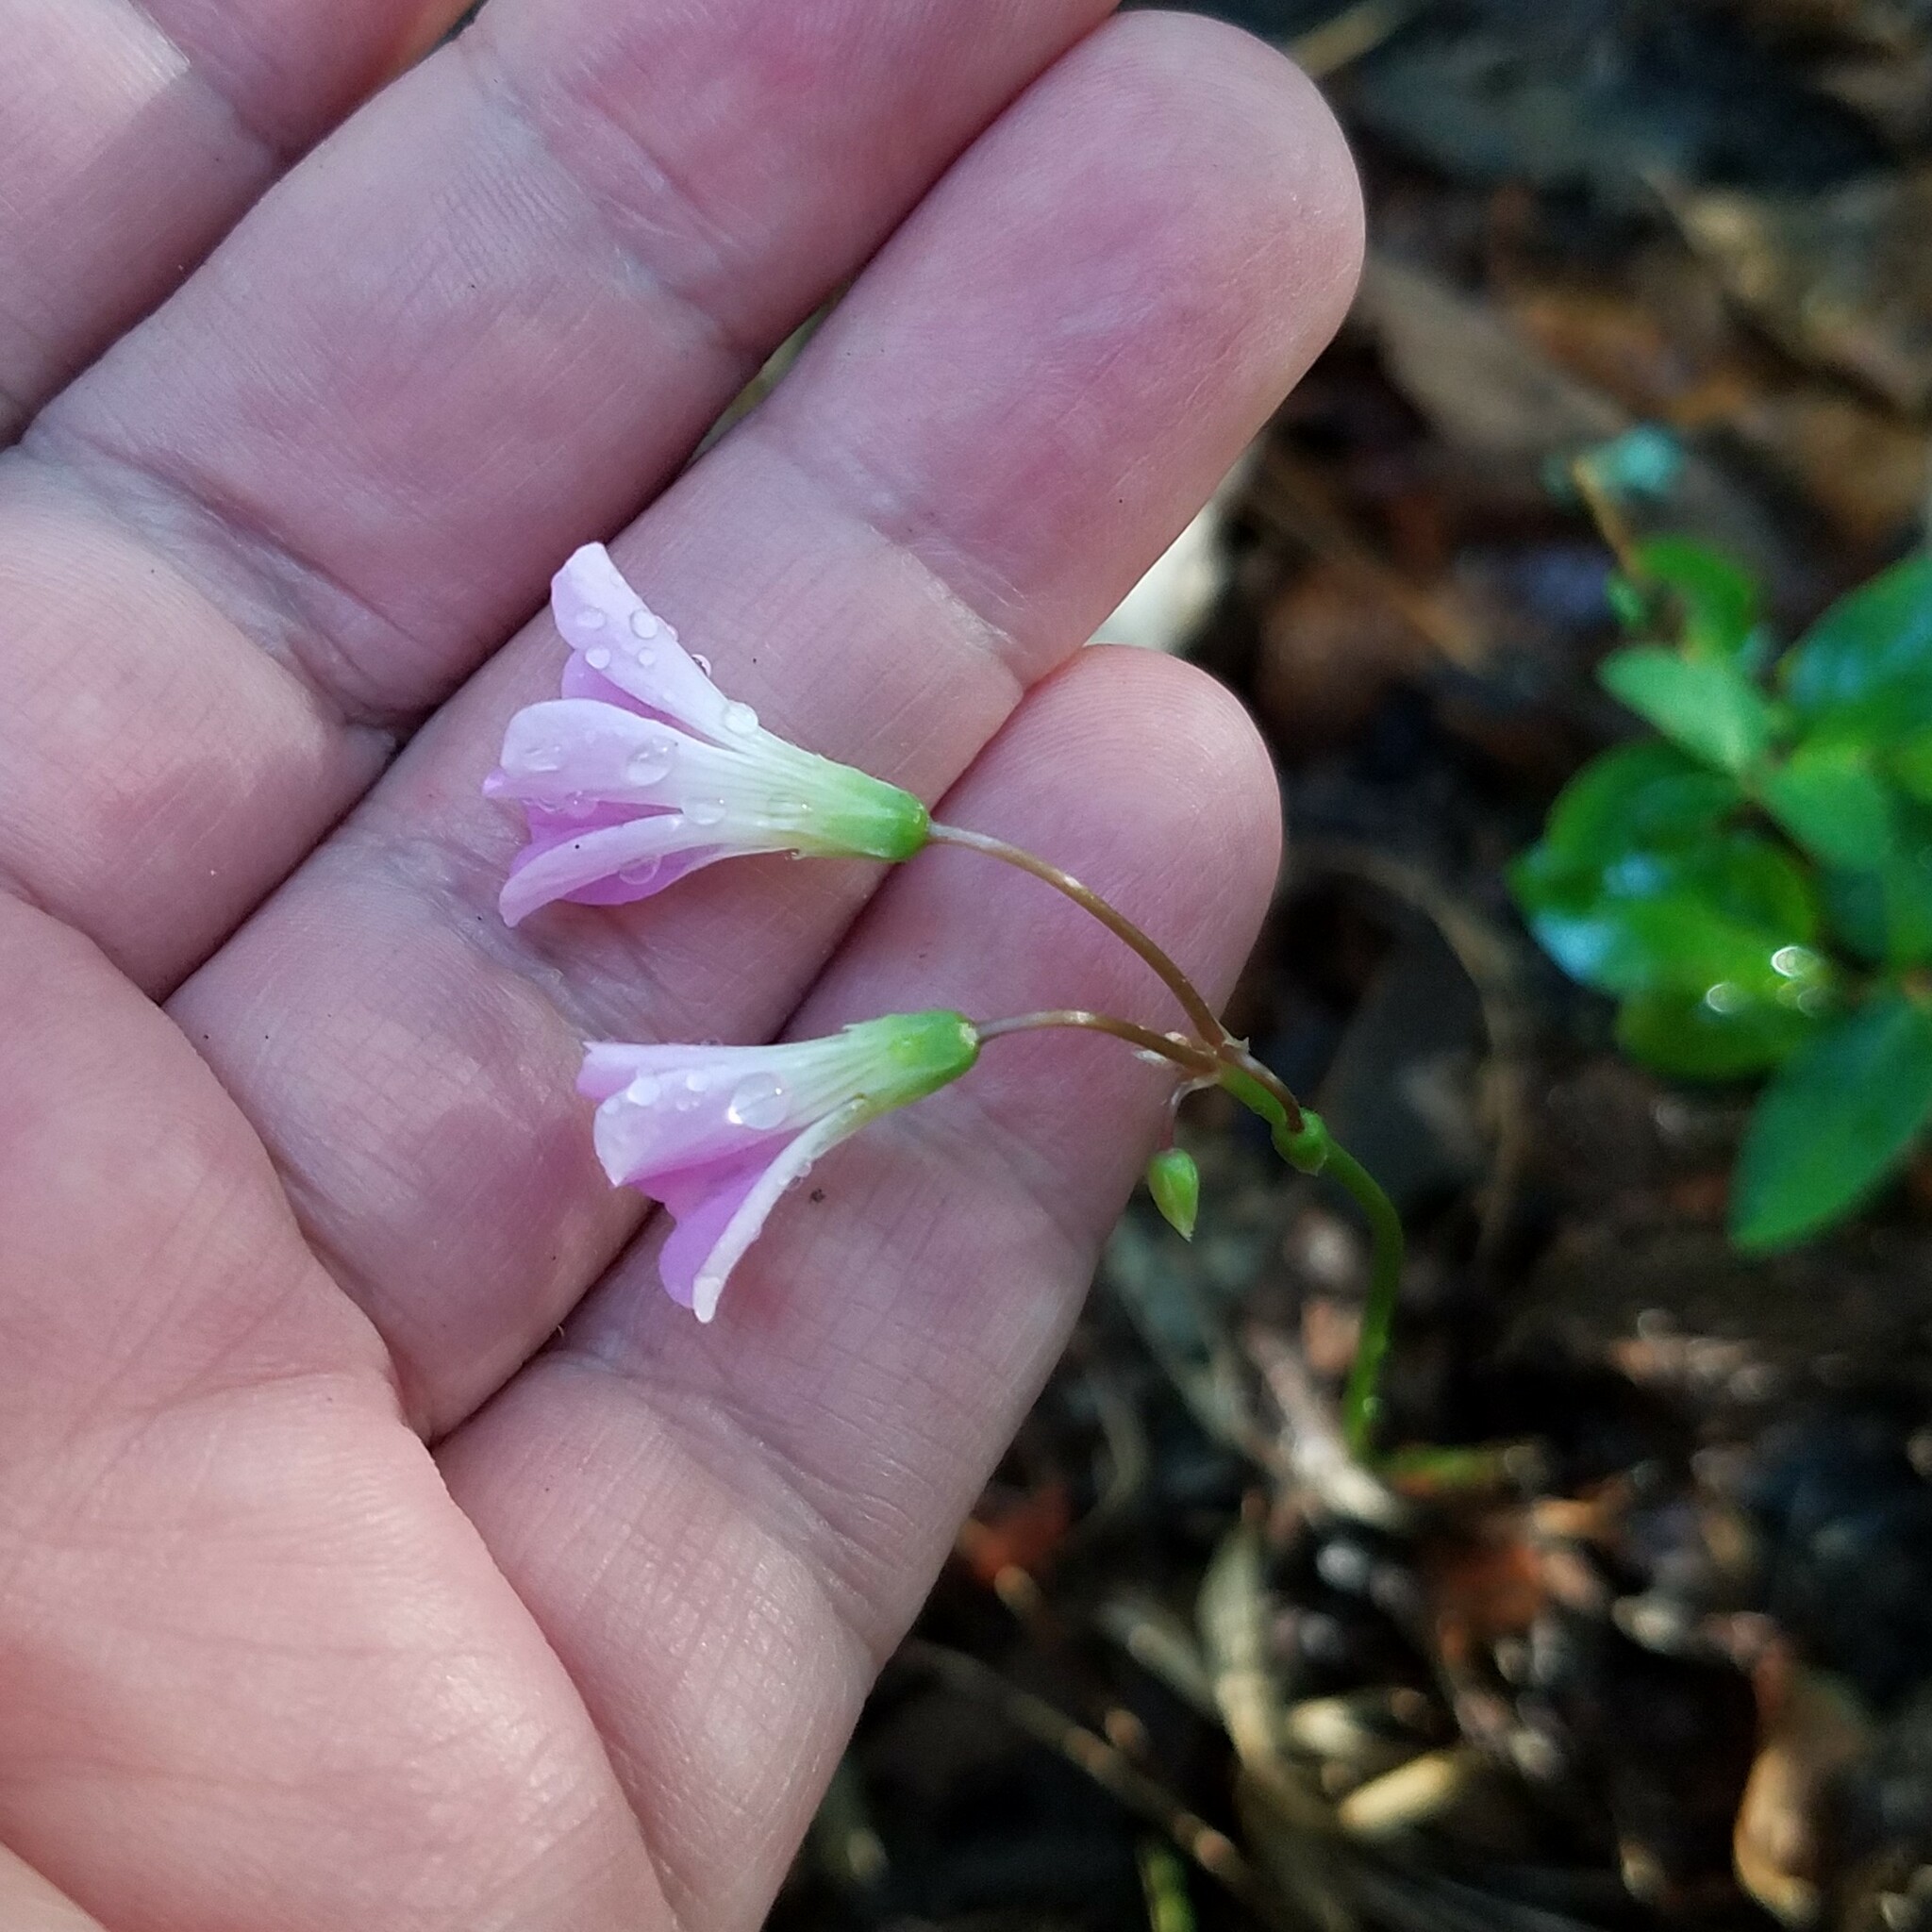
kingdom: Plantae
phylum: Tracheophyta
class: Magnoliopsida
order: Oxalidales
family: Oxalidaceae
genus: Oxalis
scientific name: Oxalis violacea
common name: Violet wood-sorrel
